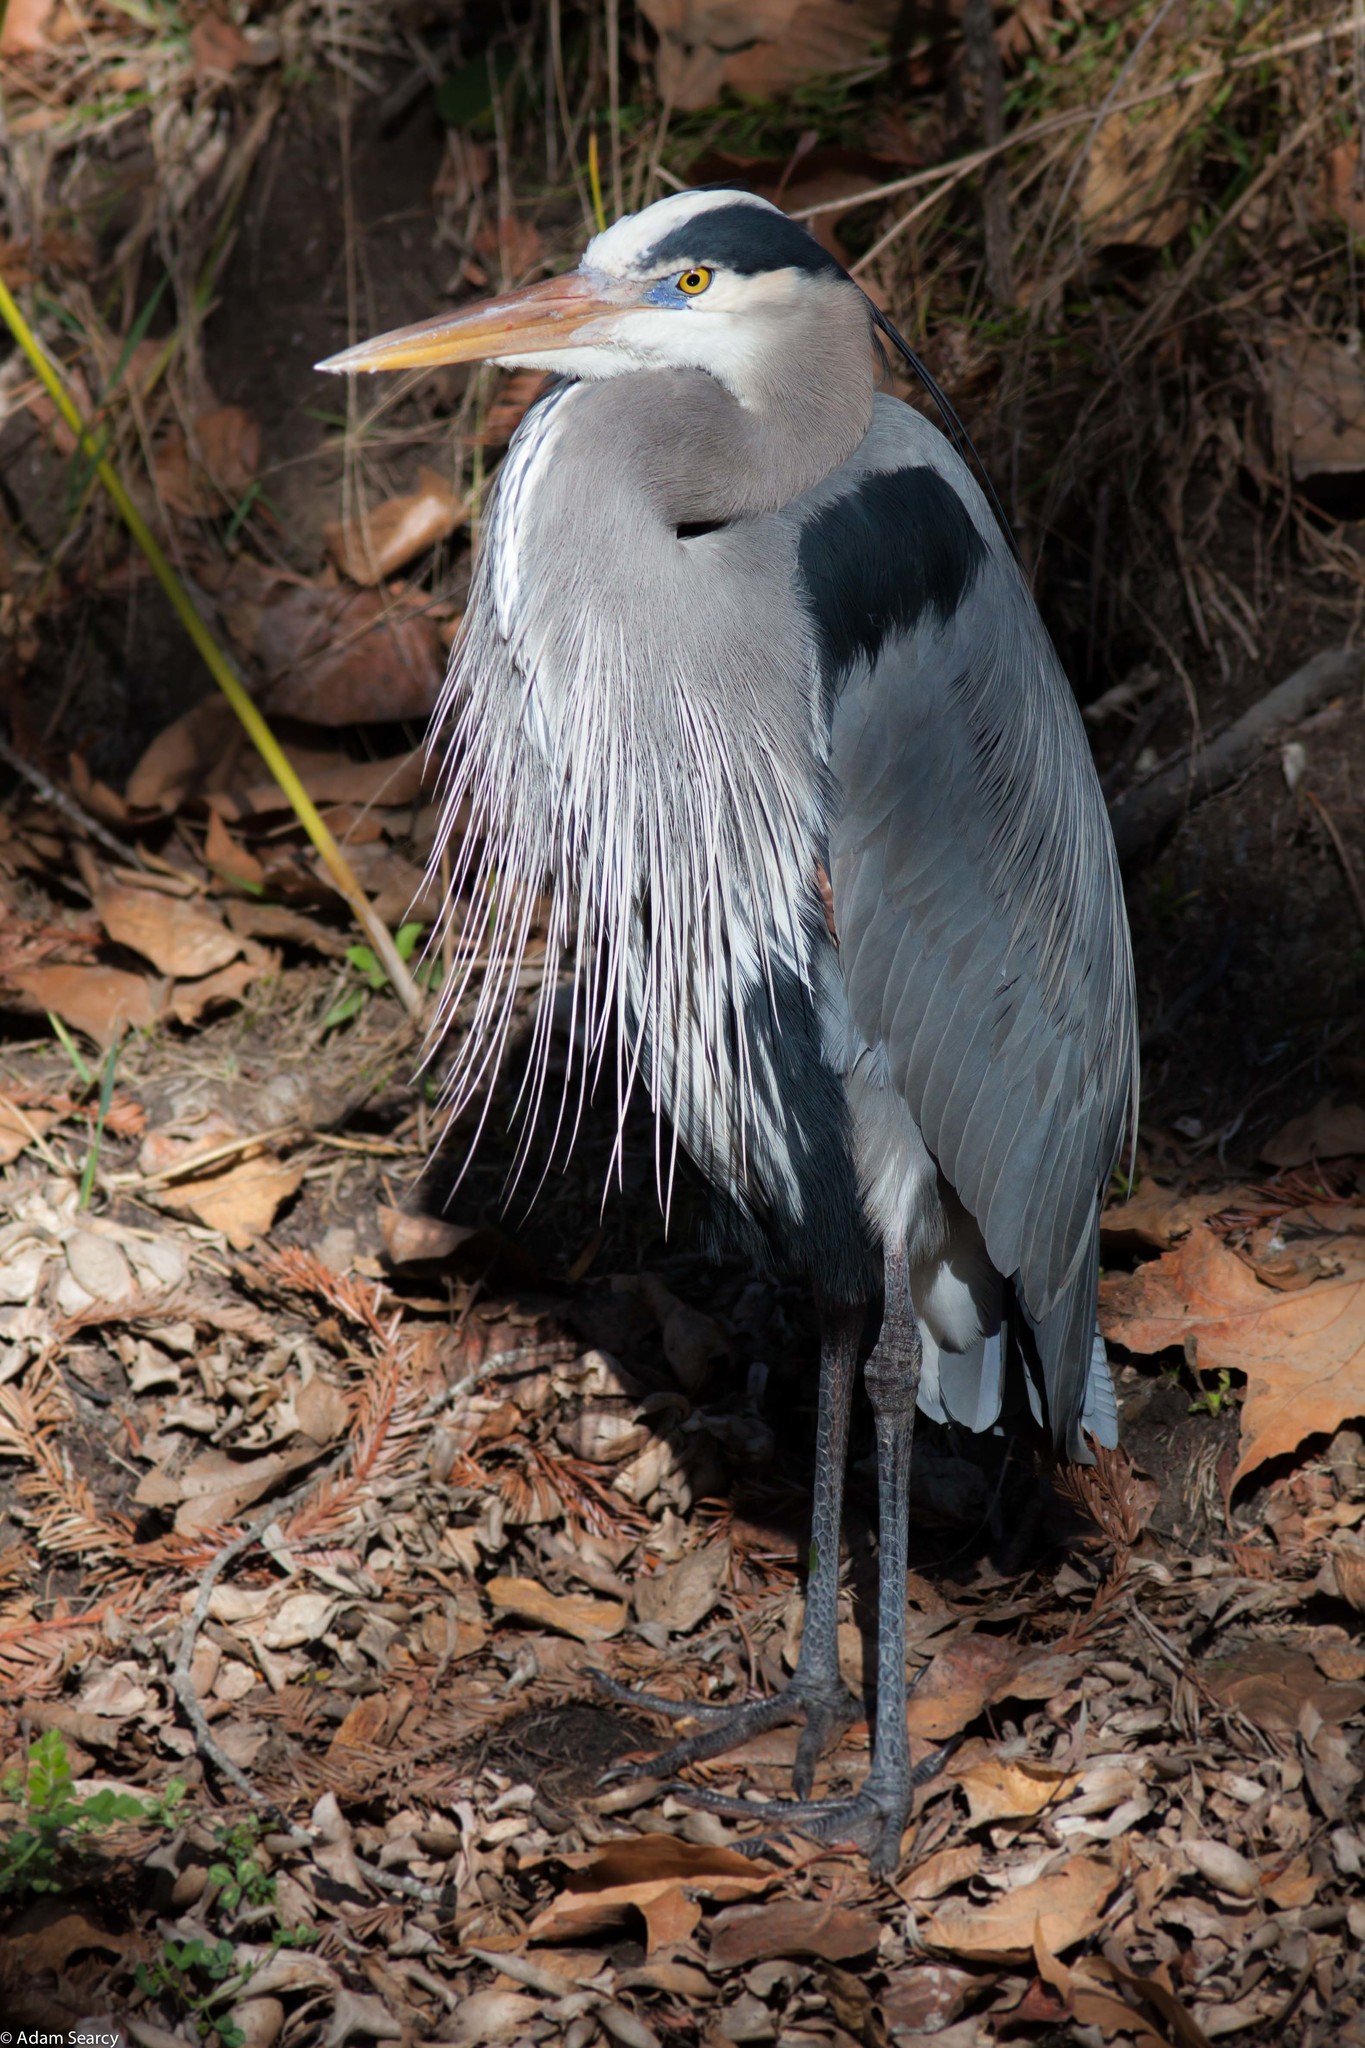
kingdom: Animalia
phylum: Chordata
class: Aves
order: Pelecaniformes
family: Ardeidae
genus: Ardea
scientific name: Ardea herodias
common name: Great blue heron
